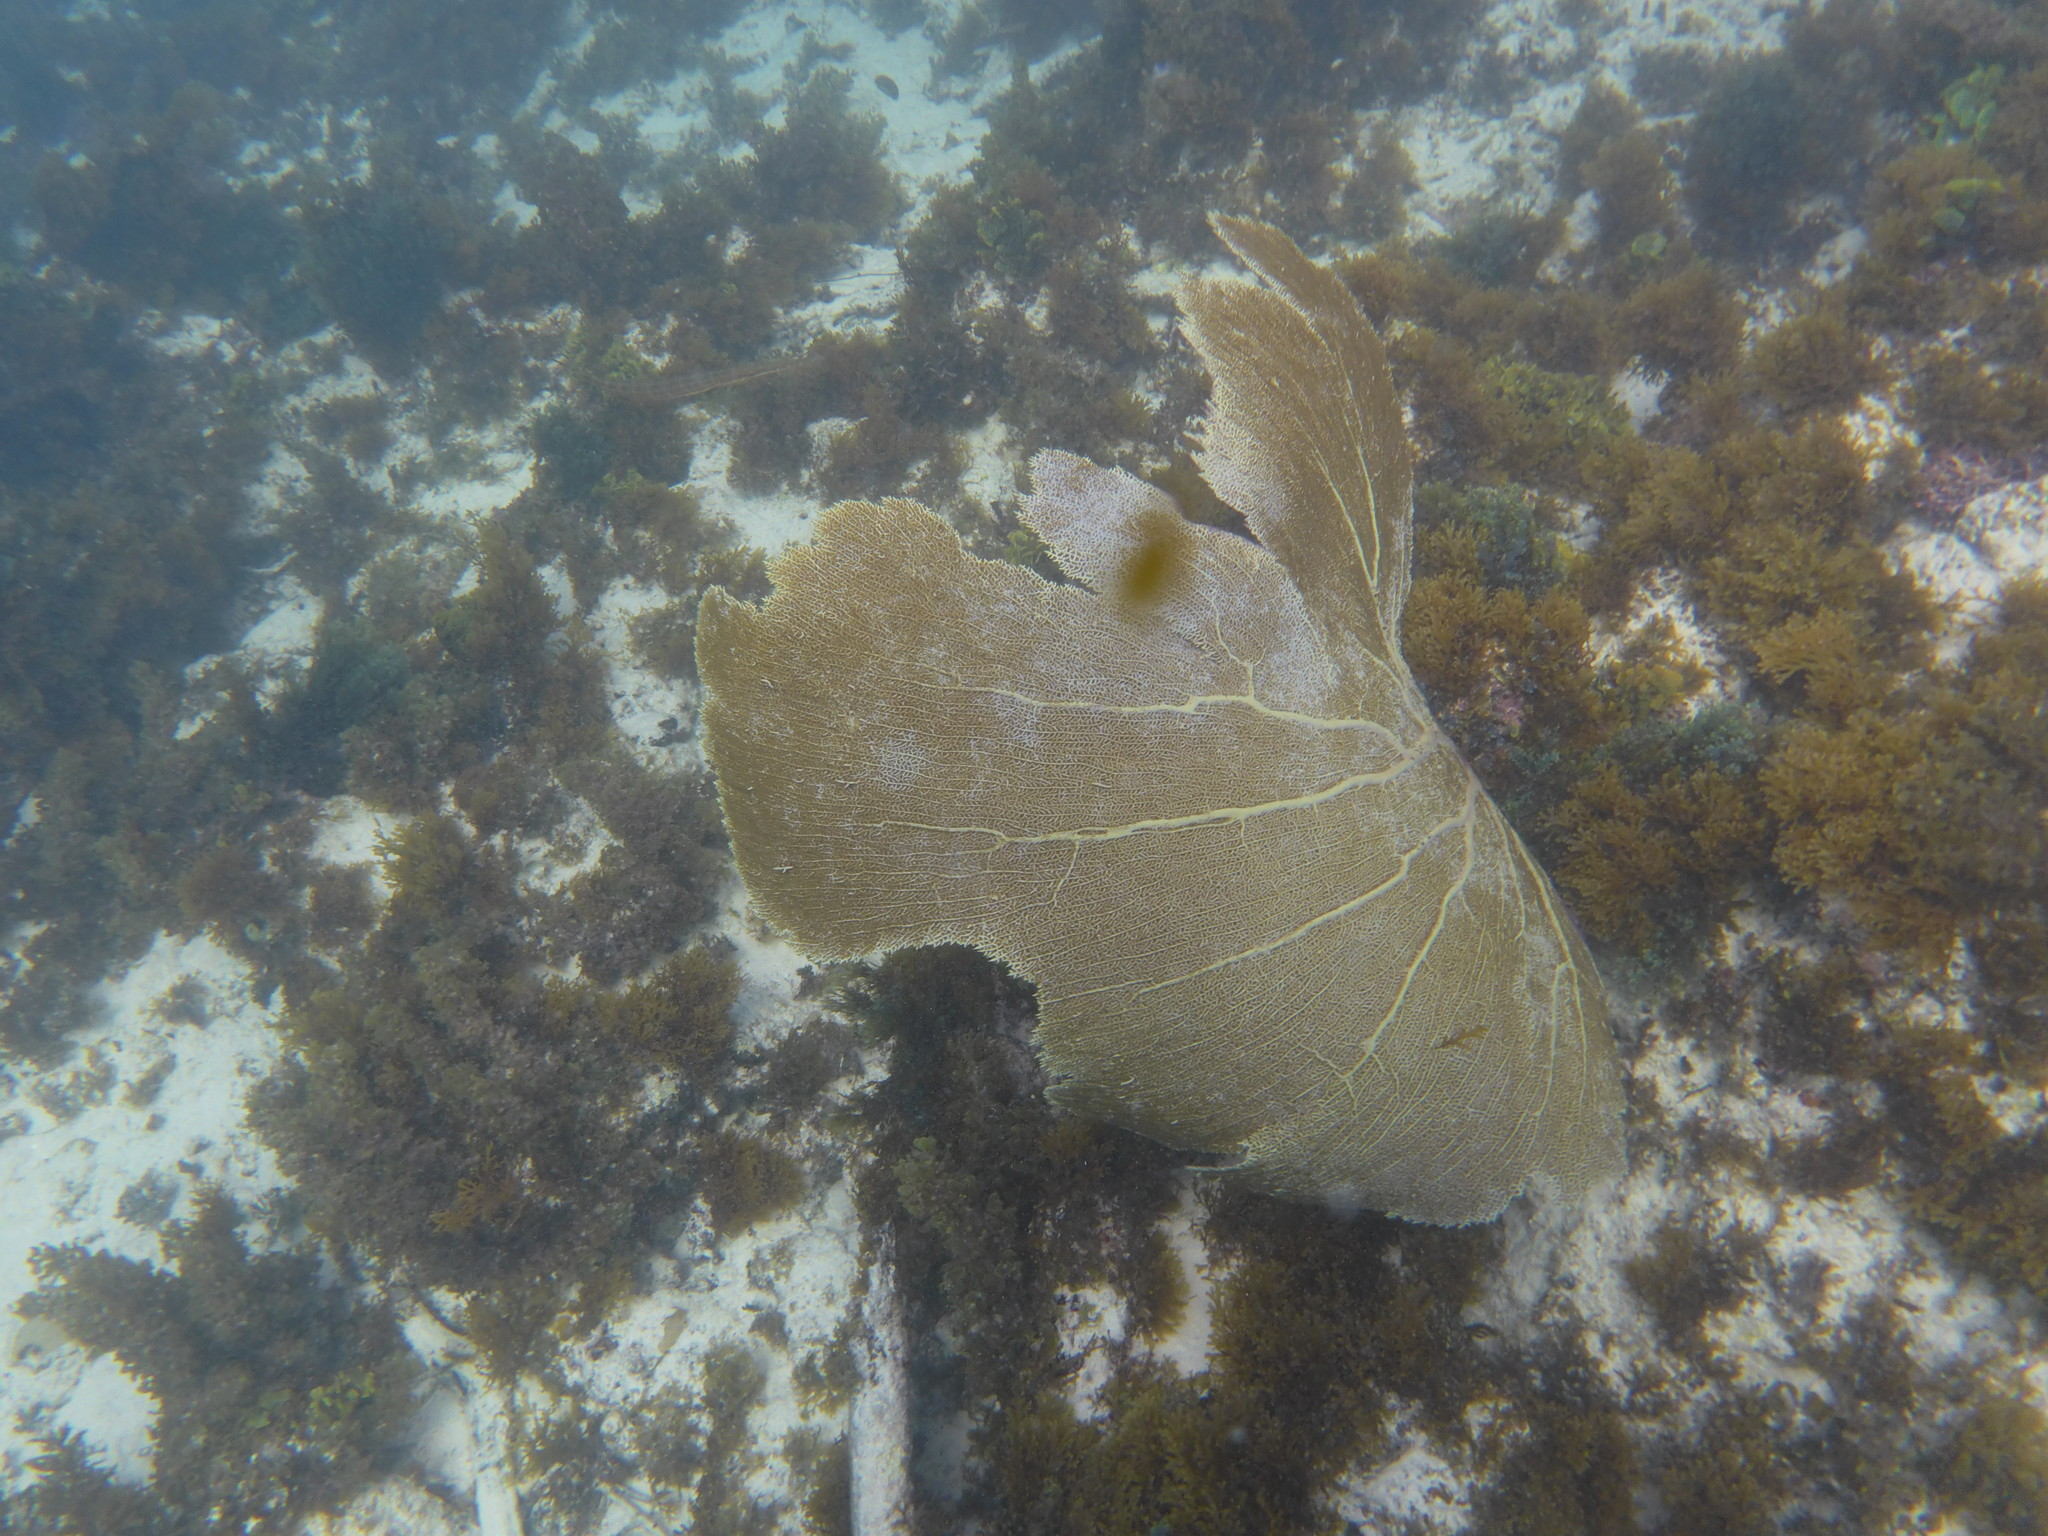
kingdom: Animalia
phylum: Cnidaria
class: Anthozoa
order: Malacalcyonacea
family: Gorgoniidae
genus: Gorgonia
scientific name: Gorgonia ventalina
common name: Common sea fan
